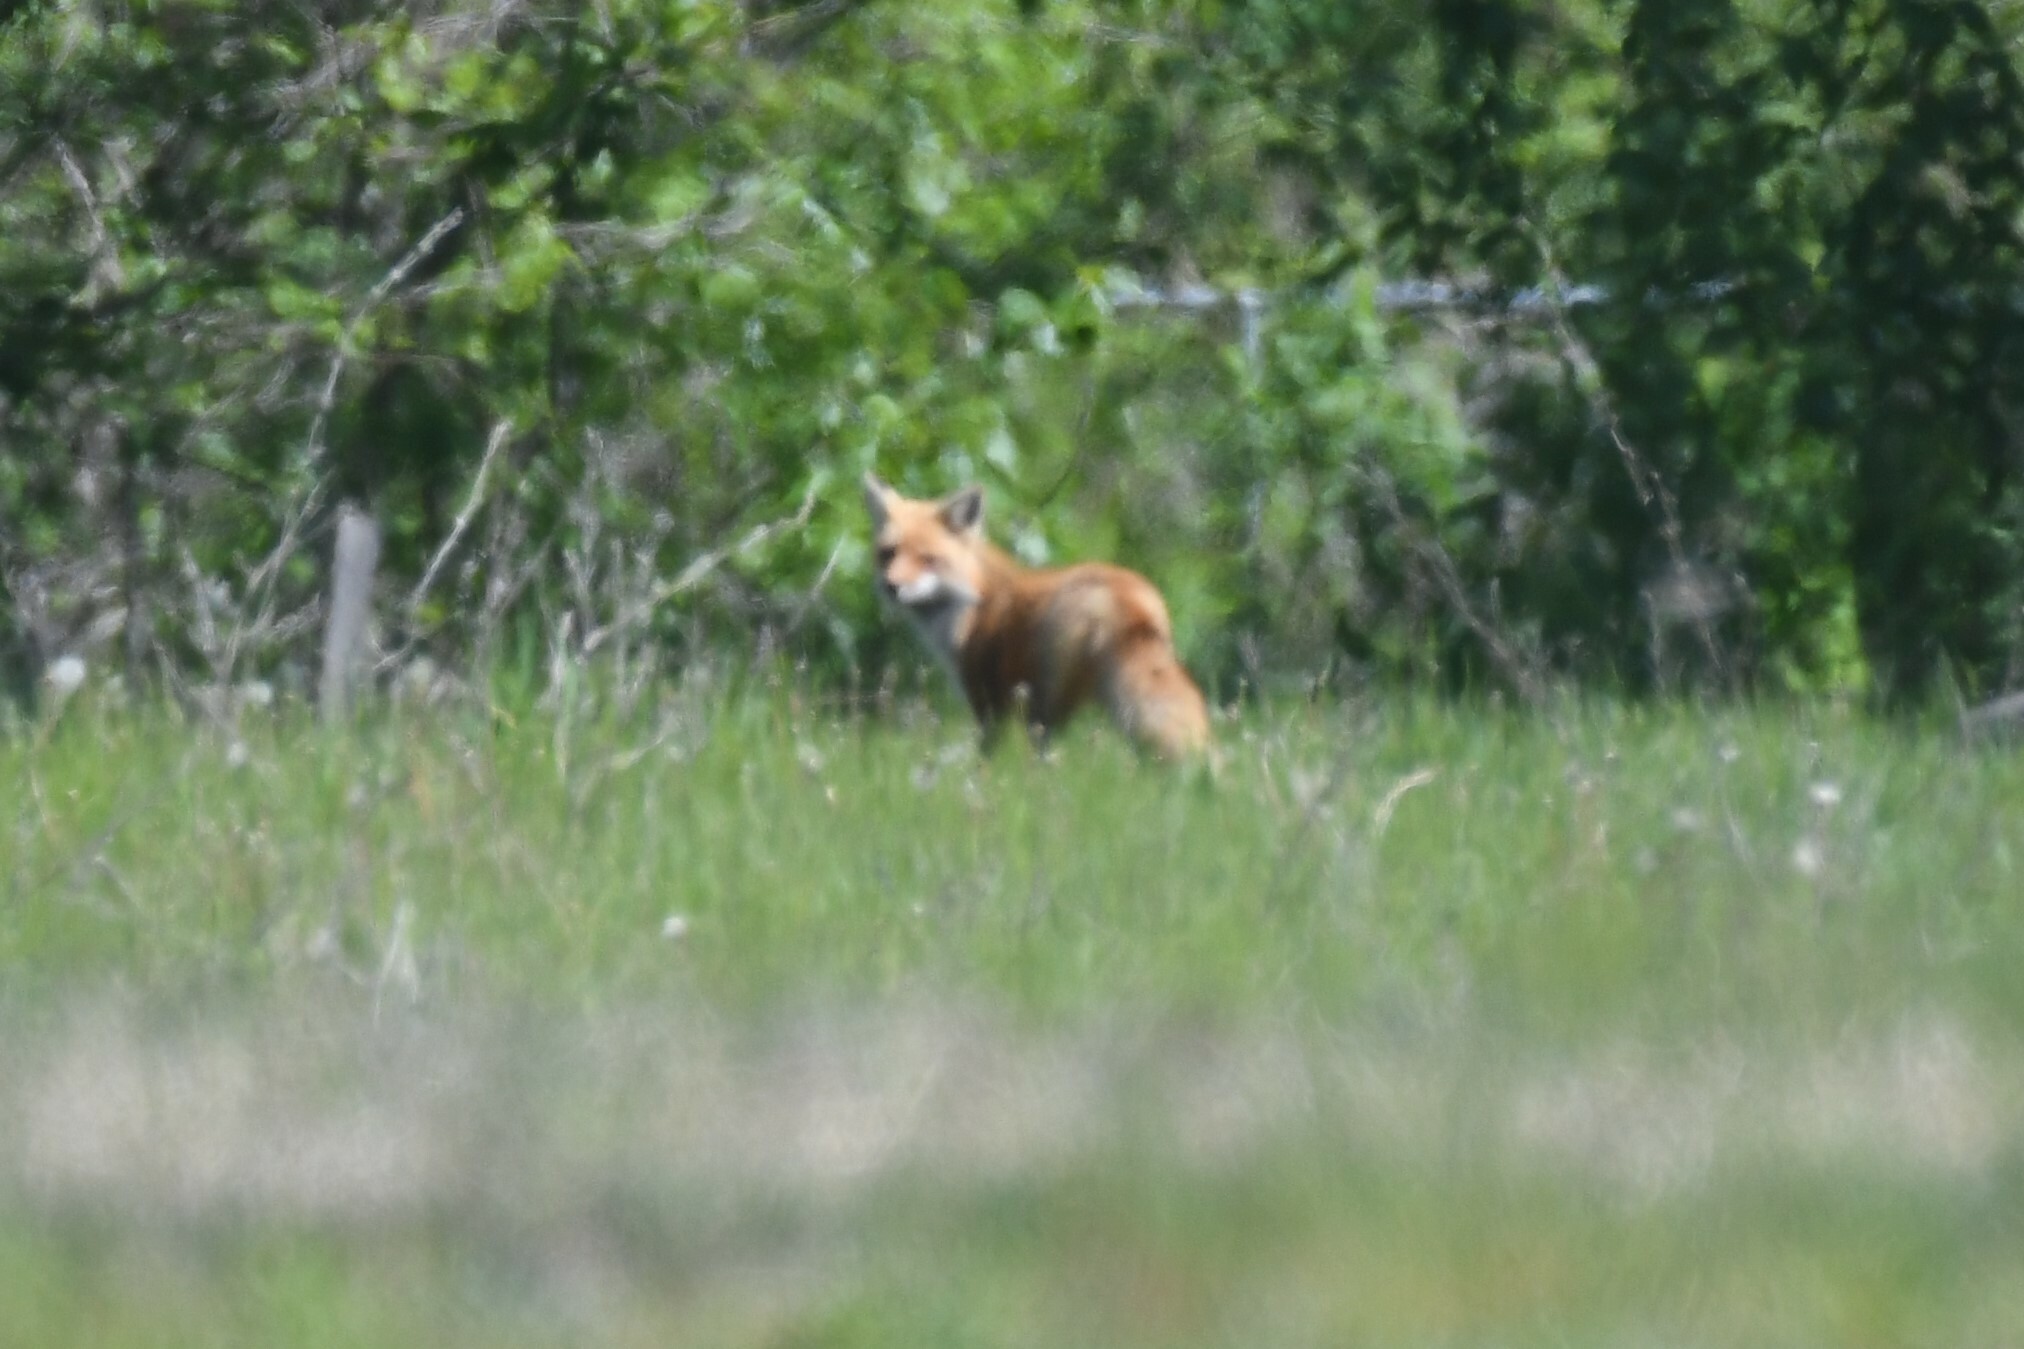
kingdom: Animalia
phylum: Chordata
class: Mammalia
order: Carnivora
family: Canidae
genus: Vulpes
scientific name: Vulpes vulpes
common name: Red fox
